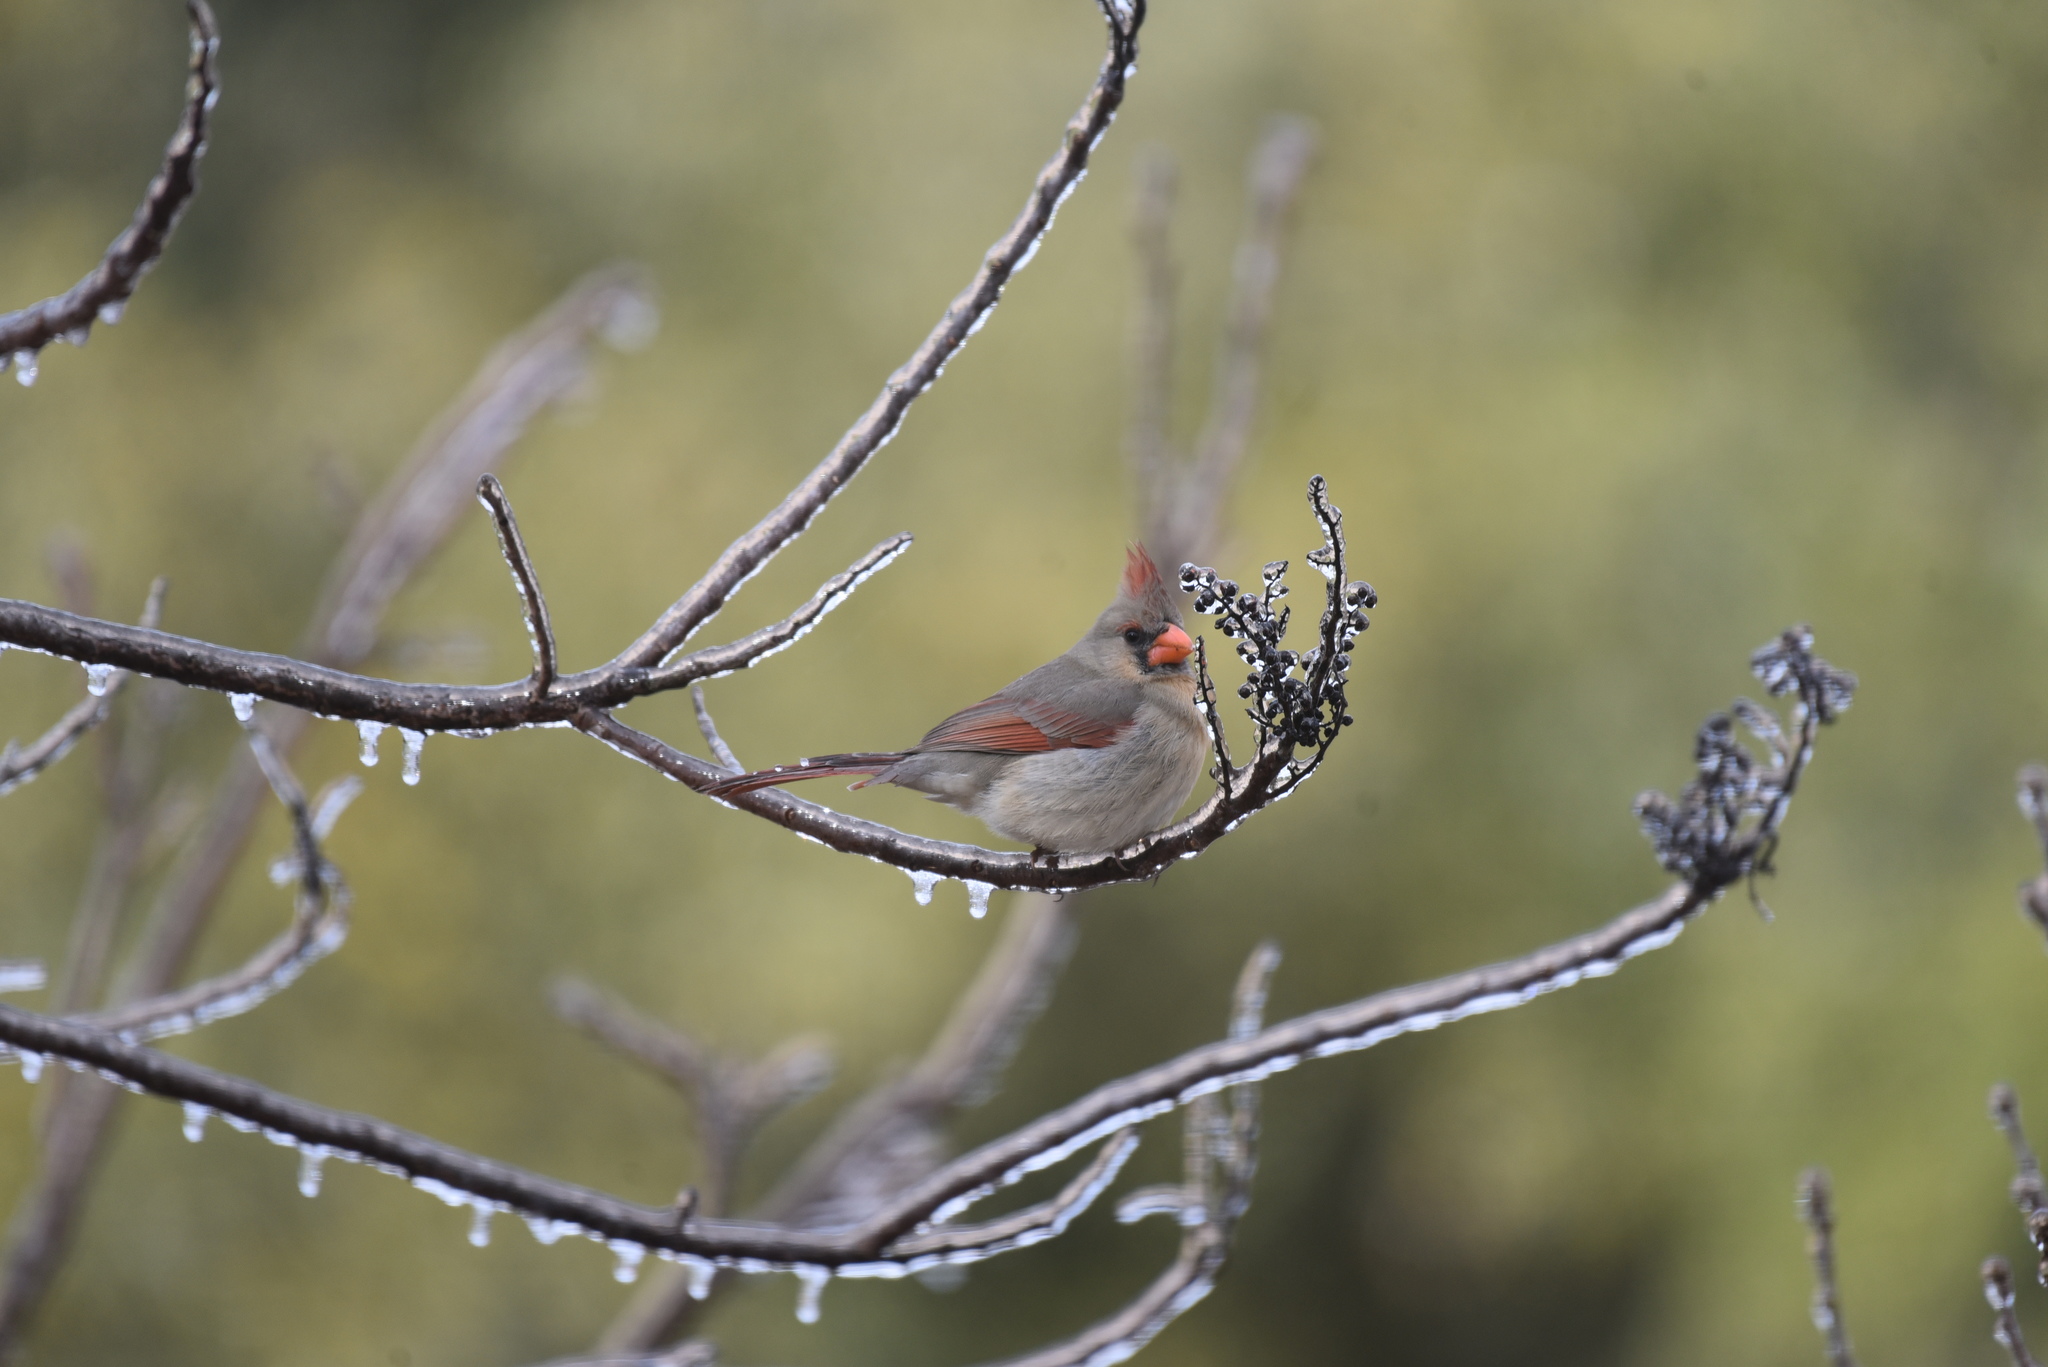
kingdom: Animalia
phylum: Chordata
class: Aves
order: Passeriformes
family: Cardinalidae
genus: Cardinalis
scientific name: Cardinalis cardinalis
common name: Northern cardinal
